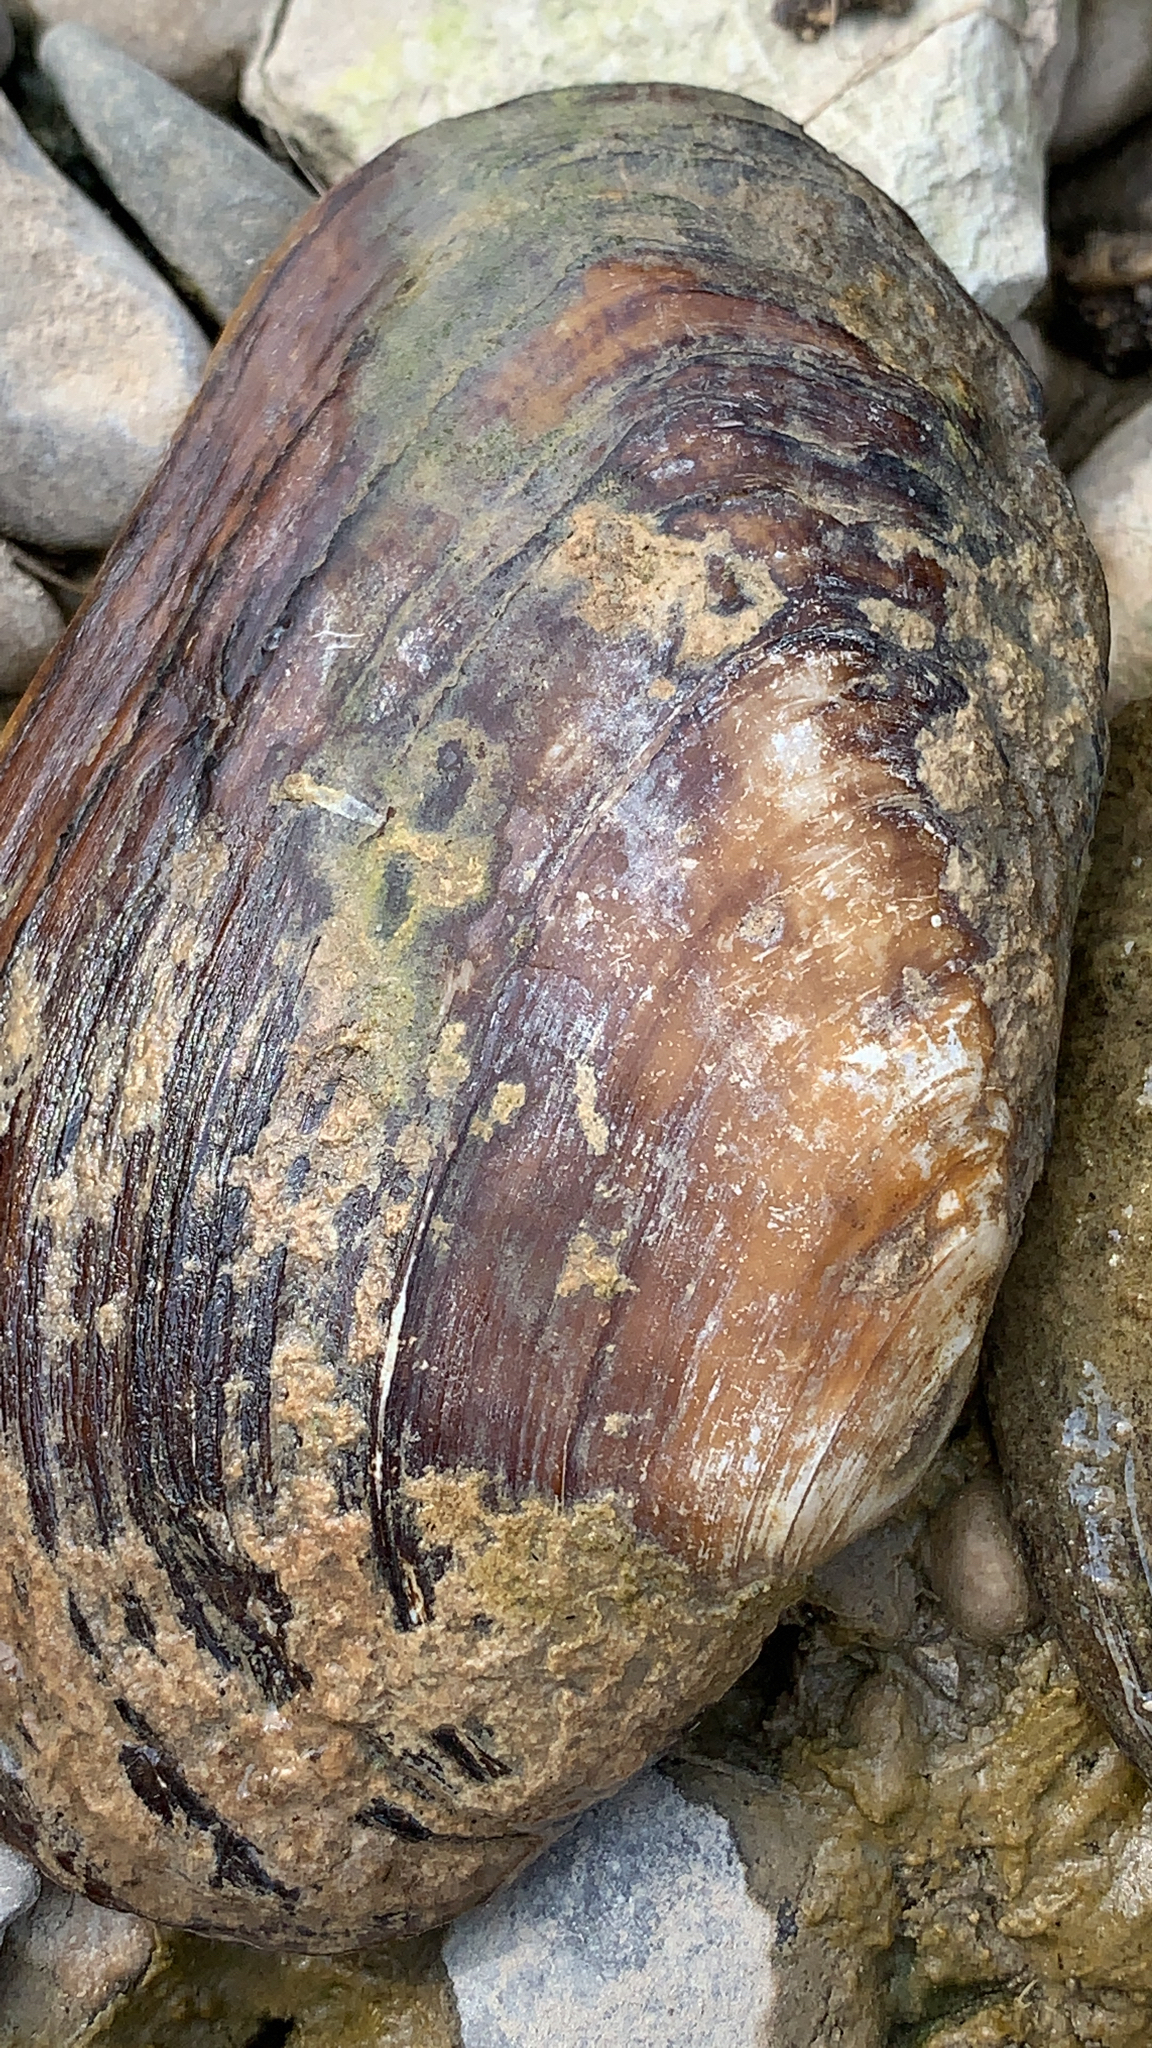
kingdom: Animalia
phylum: Mollusca
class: Bivalvia
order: Unionida
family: Unionidae
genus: Lasmigona
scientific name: Lasmigona costata
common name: Flutedshell
